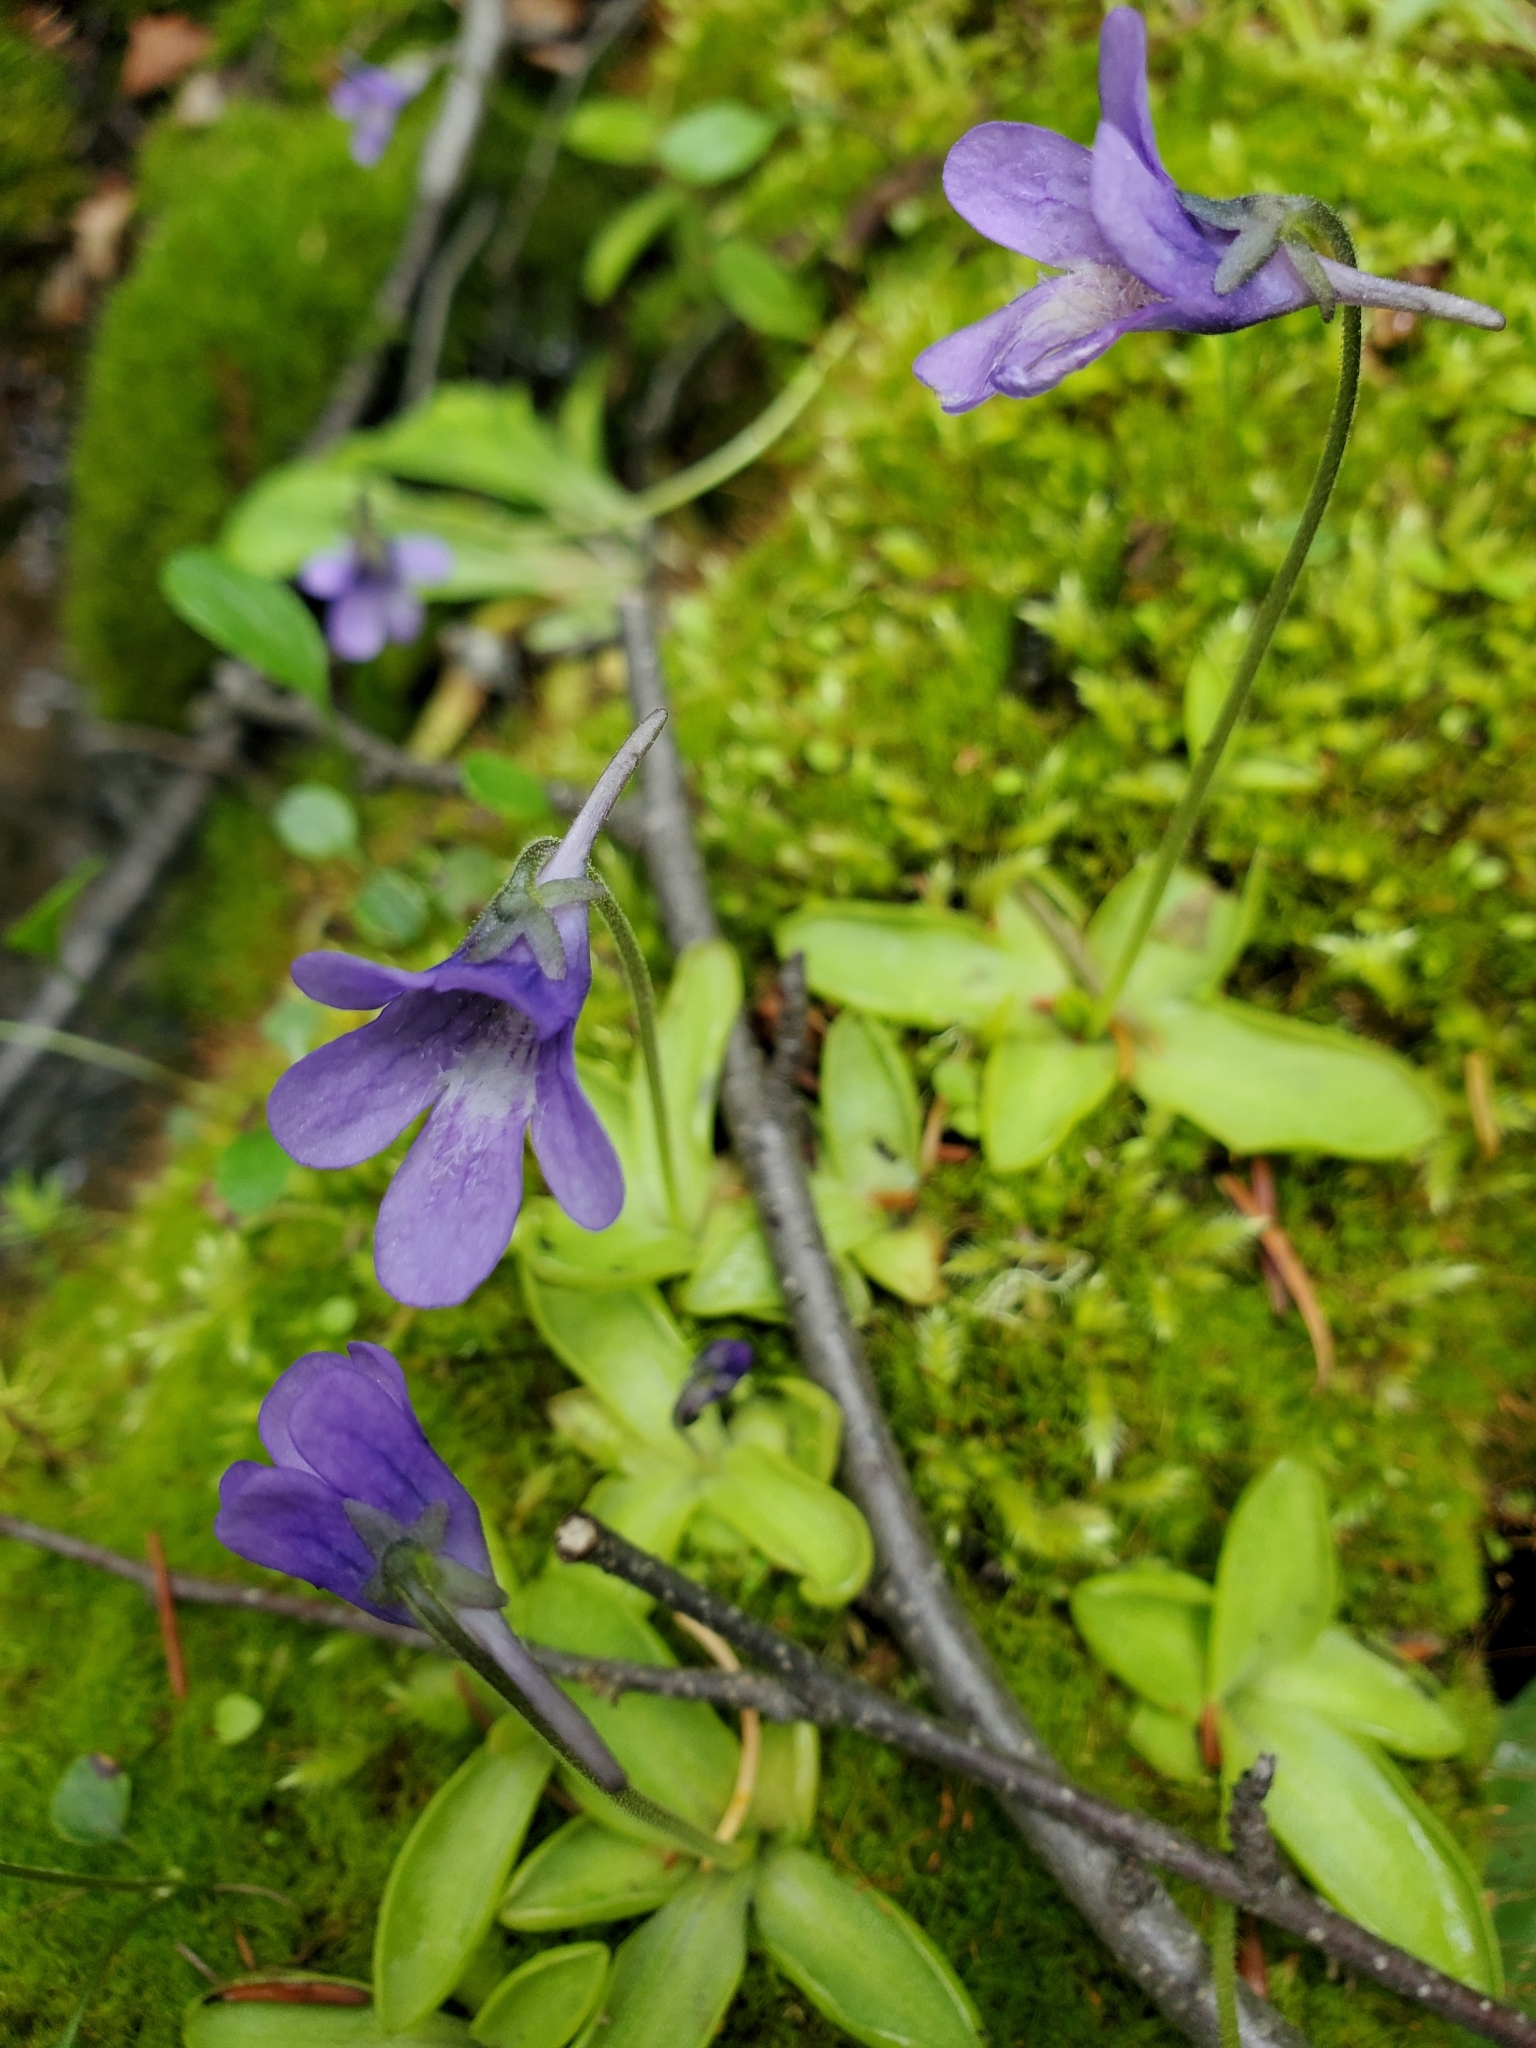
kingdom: Plantae
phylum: Tracheophyta
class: Magnoliopsida
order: Lamiales
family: Lentibulariaceae
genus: Pinguicula
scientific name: Pinguicula macroceras
